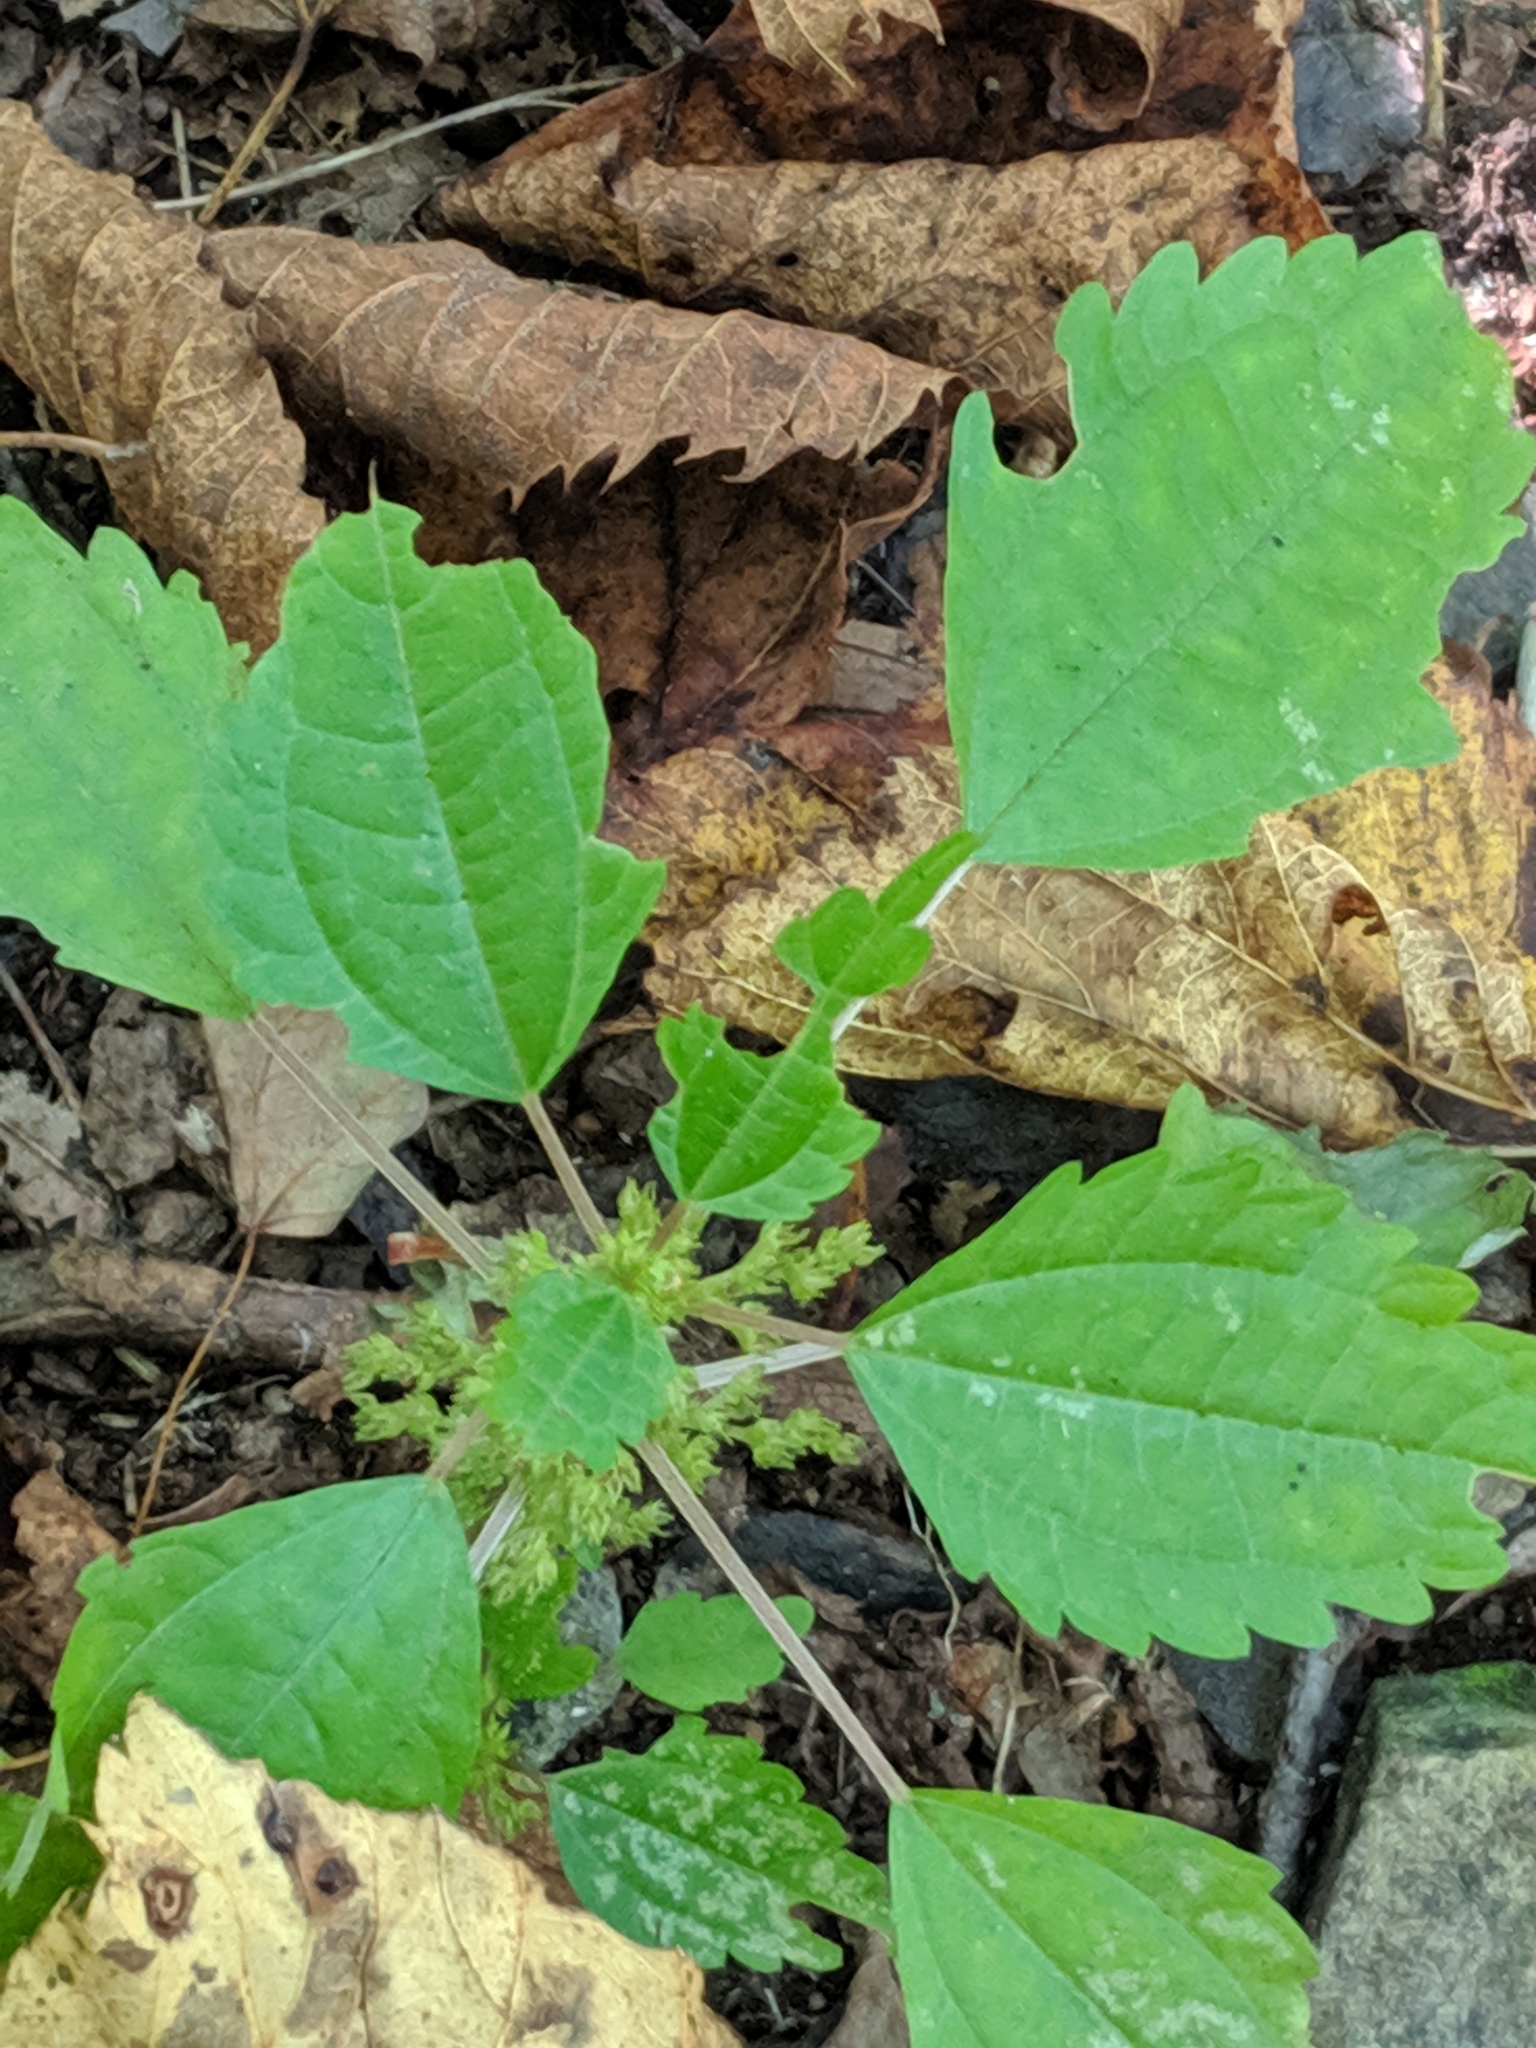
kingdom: Plantae
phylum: Tracheophyta
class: Magnoliopsida
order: Rosales
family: Urticaceae
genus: Pilea
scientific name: Pilea pumila
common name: Clearweed
